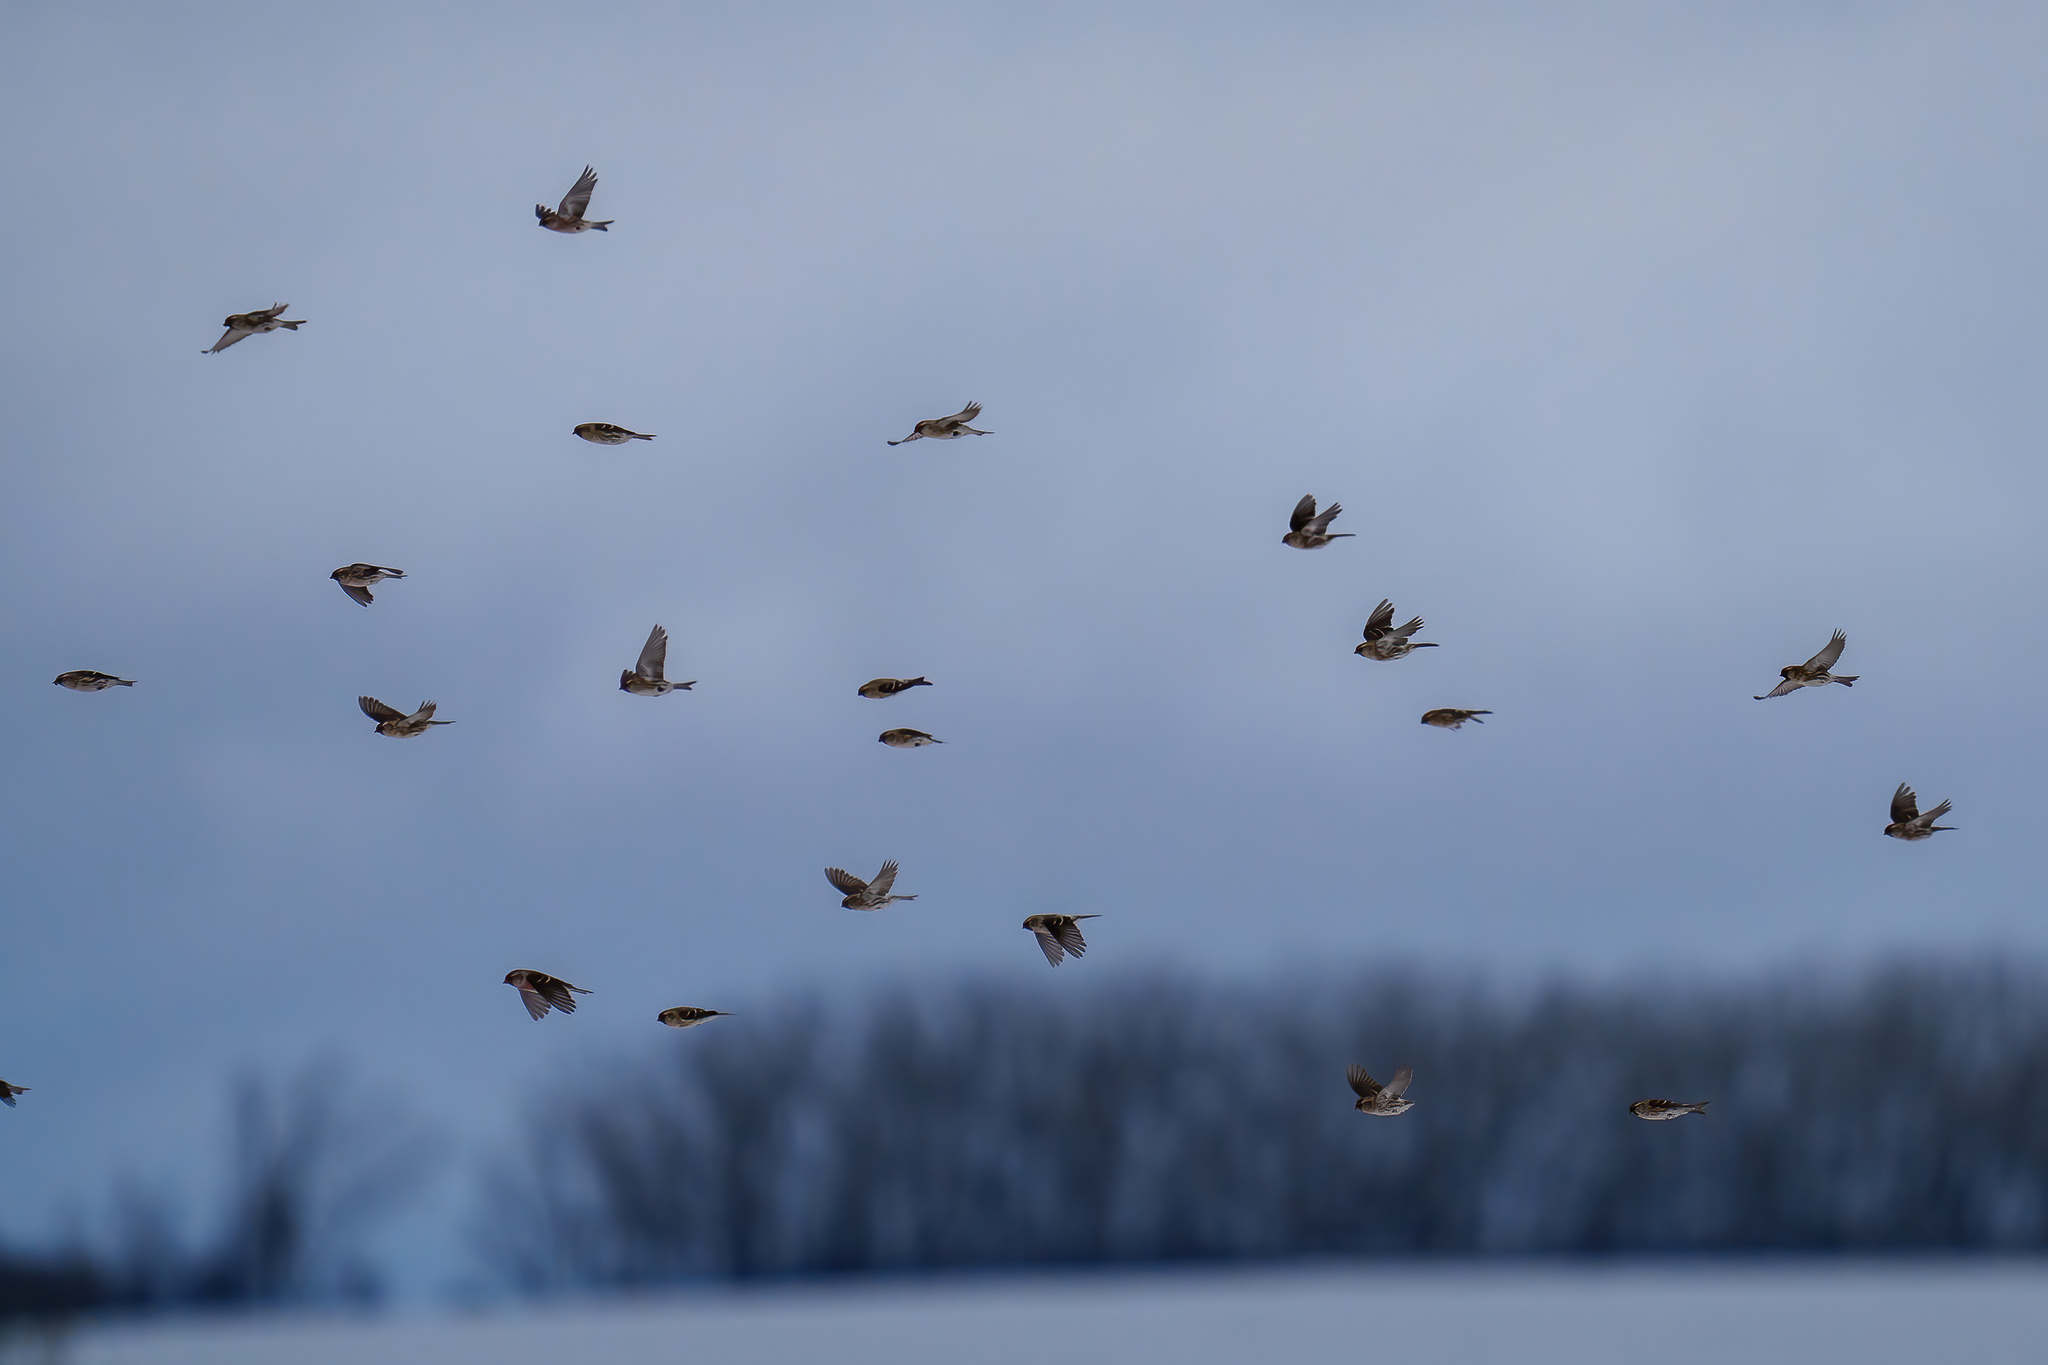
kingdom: Animalia
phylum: Chordata
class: Aves
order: Passeriformes
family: Fringillidae
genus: Acanthis
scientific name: Acanthis flammea
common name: Common redpoll
